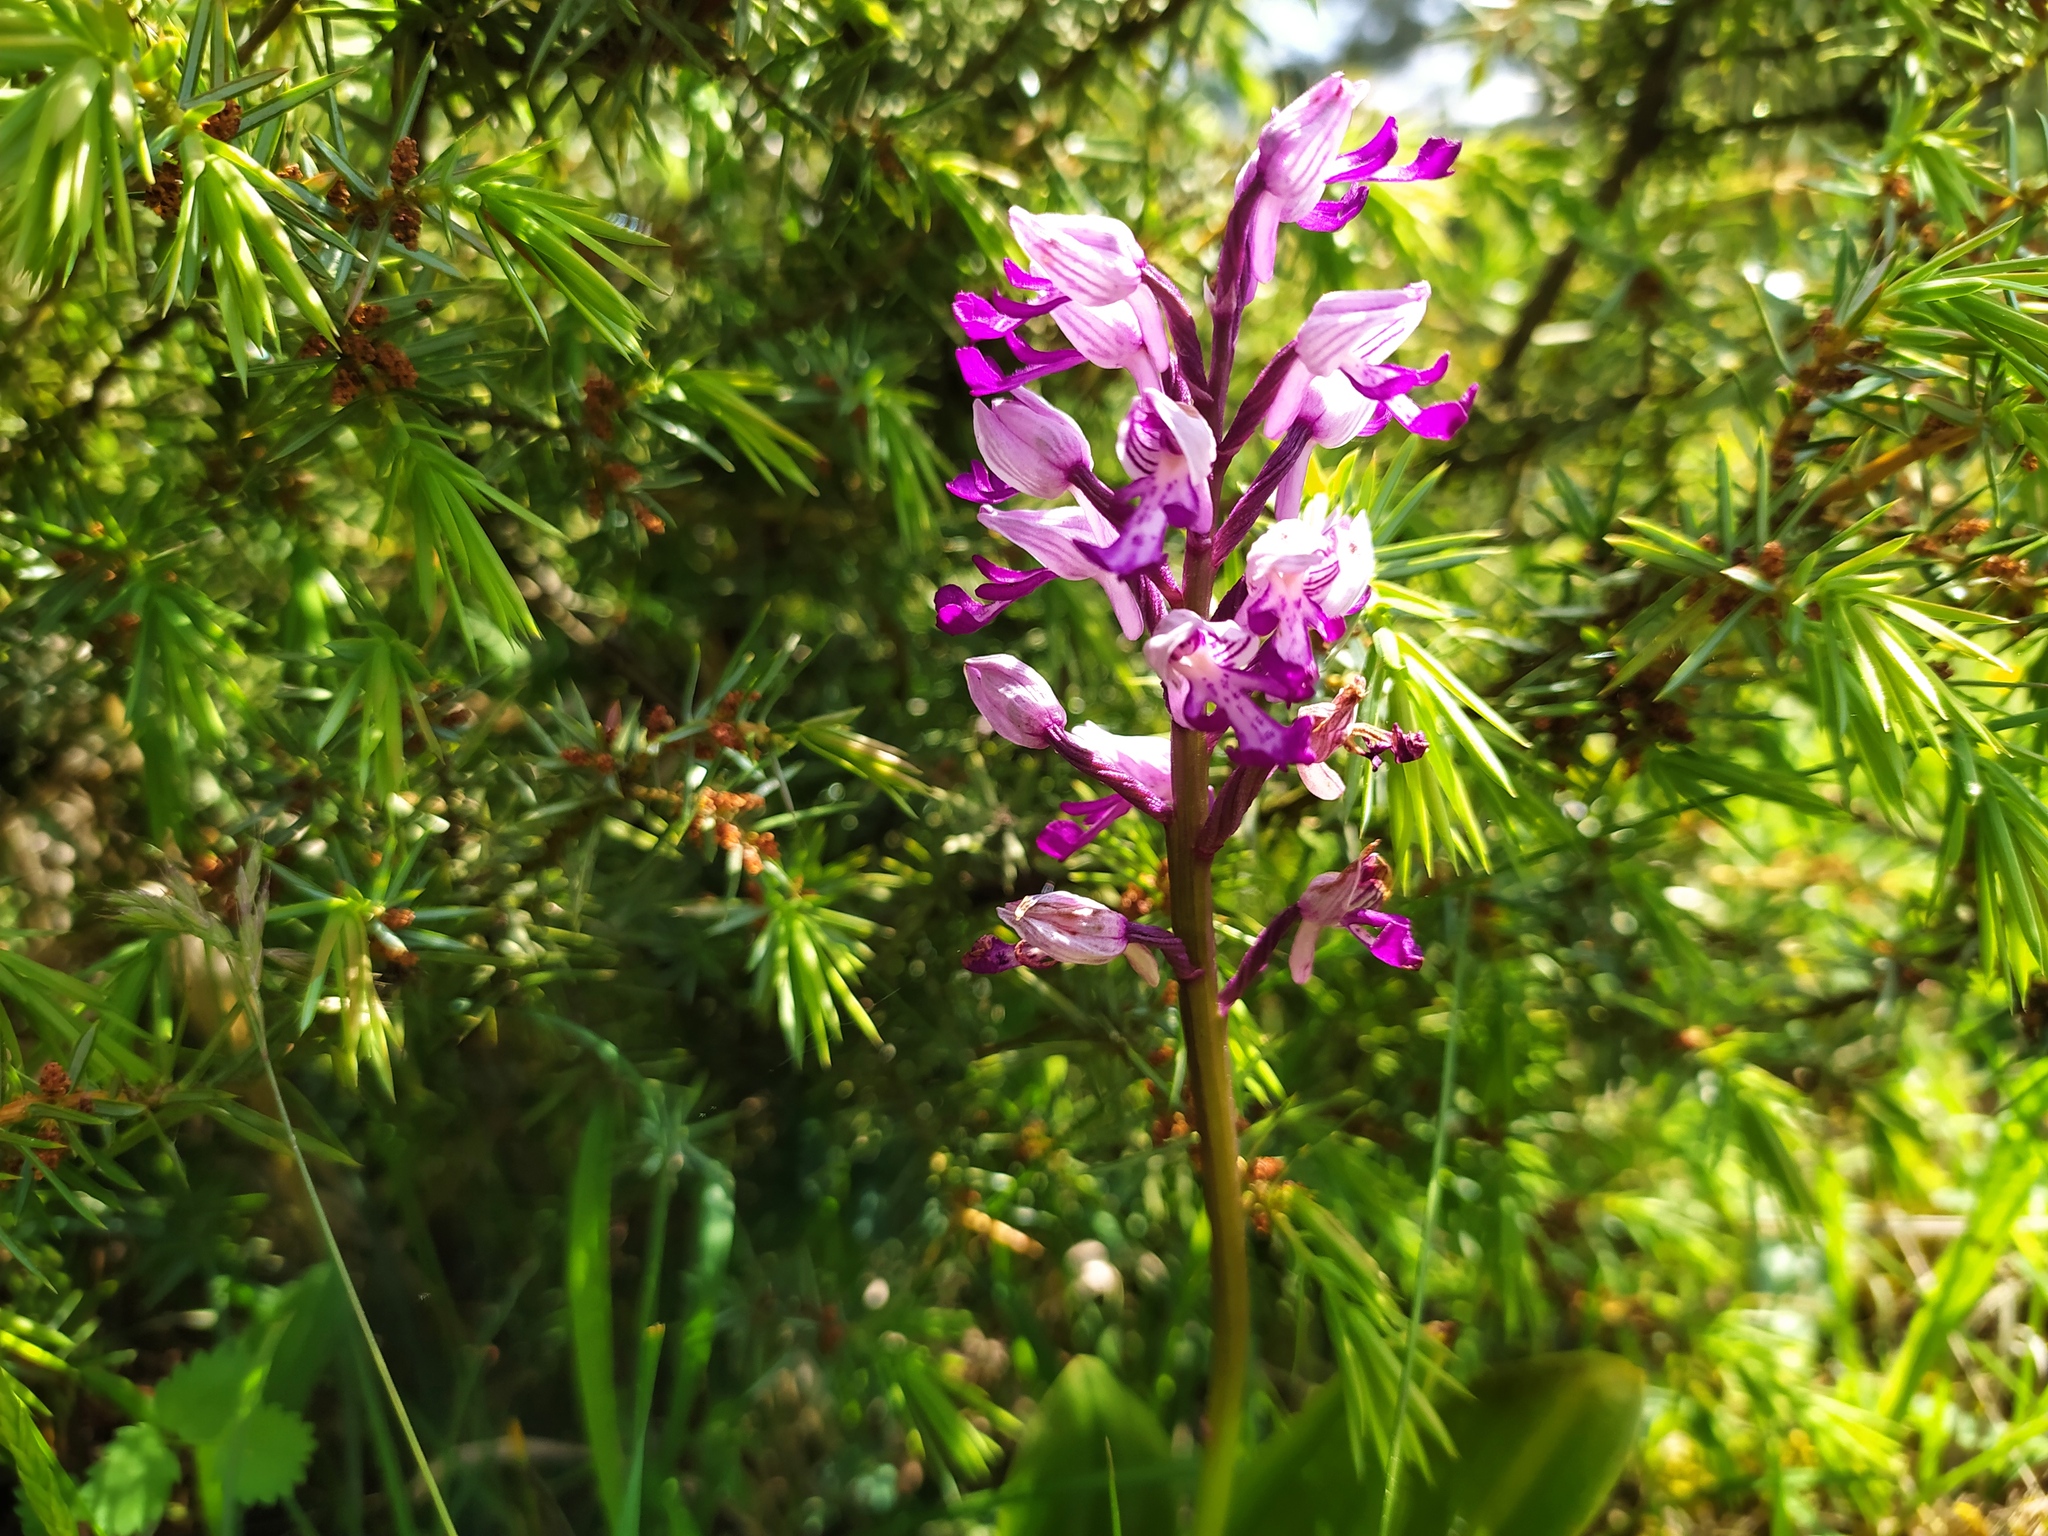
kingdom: Plantae
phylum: Tracheophyta
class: Liliopsida
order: Asparagales
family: Orchidaceae
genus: Orchis
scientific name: Orchis militaris
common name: Military orchid
